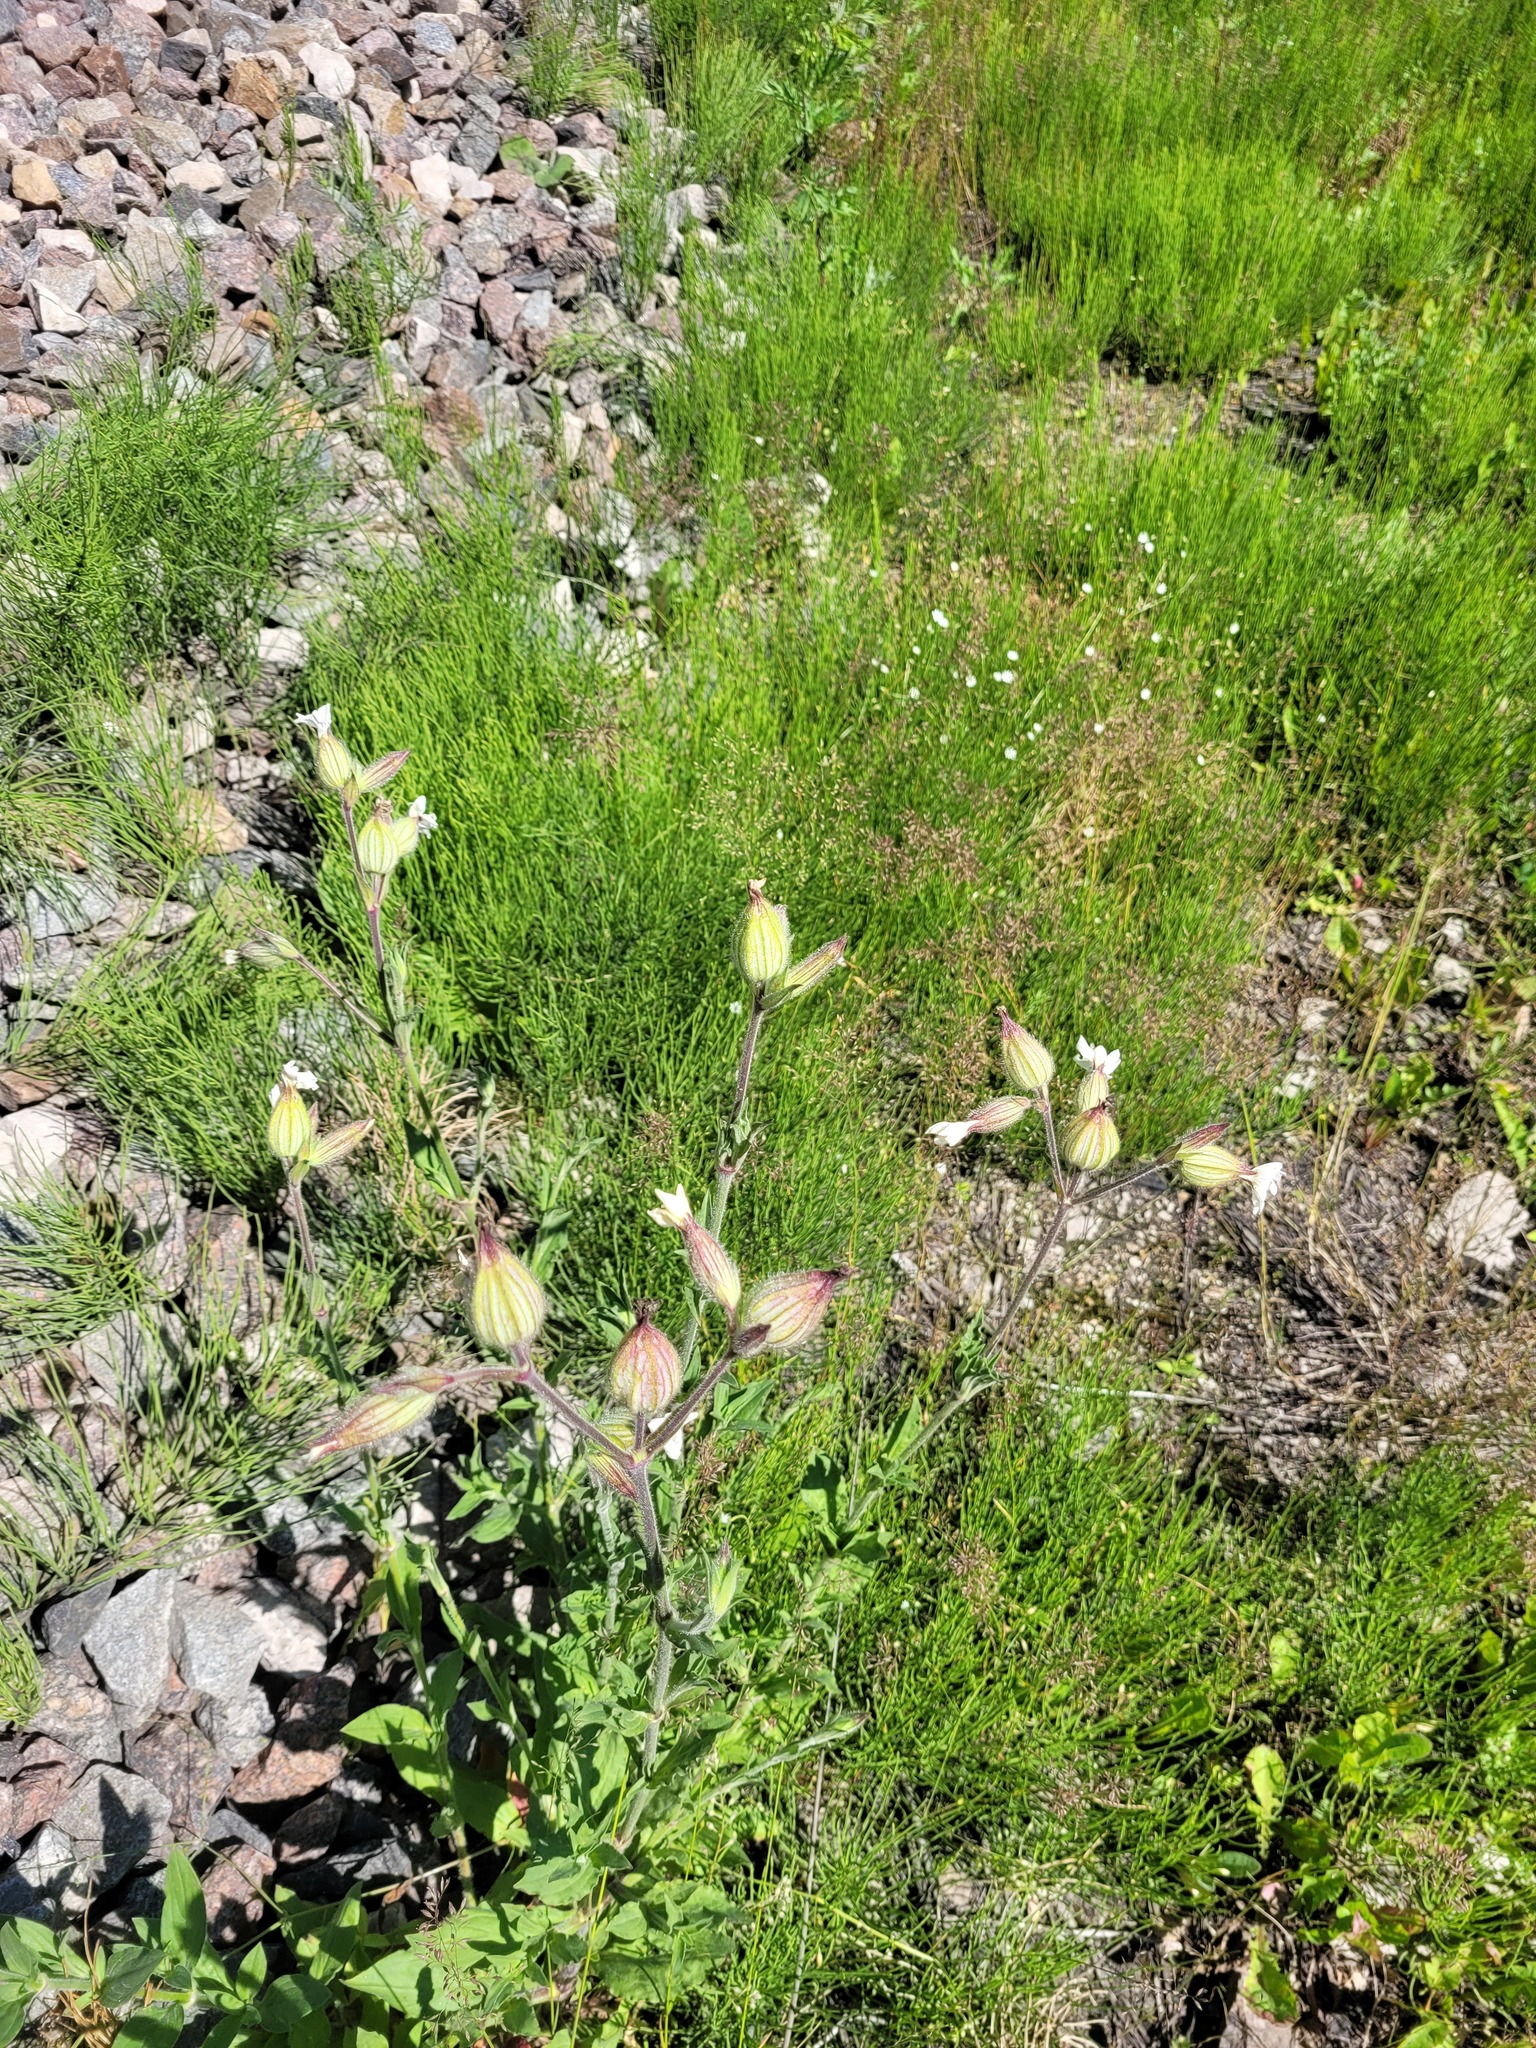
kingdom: Plantae
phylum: Tracheophyta
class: Magnoliopsida
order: Caryophyllales
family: Caryophyllaceae
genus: Silene
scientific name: Silene latifolia
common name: White campion
